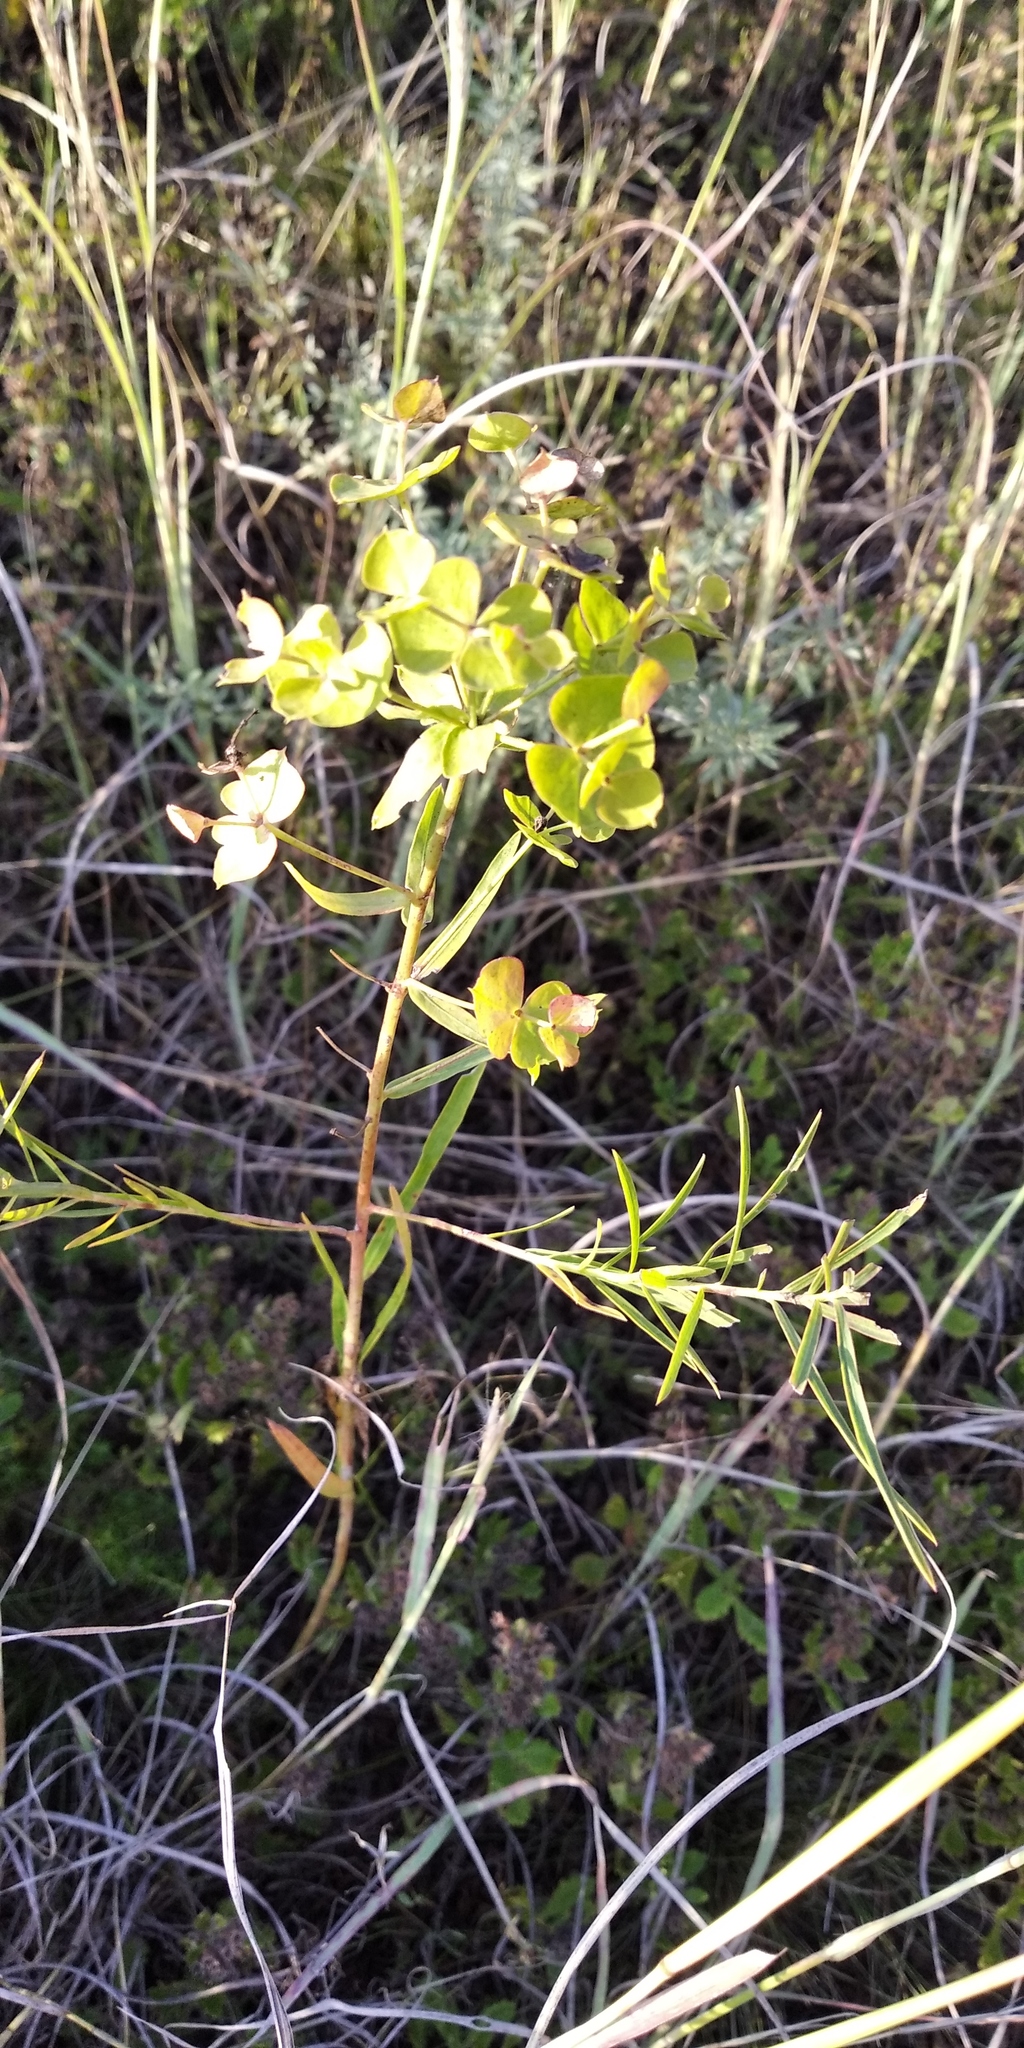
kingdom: Plantae
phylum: Tracheophyta
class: Magnoliopsida
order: Malpighiales
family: Euphorbiaceae
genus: Euphorbia
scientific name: Euphorbia saratoi
